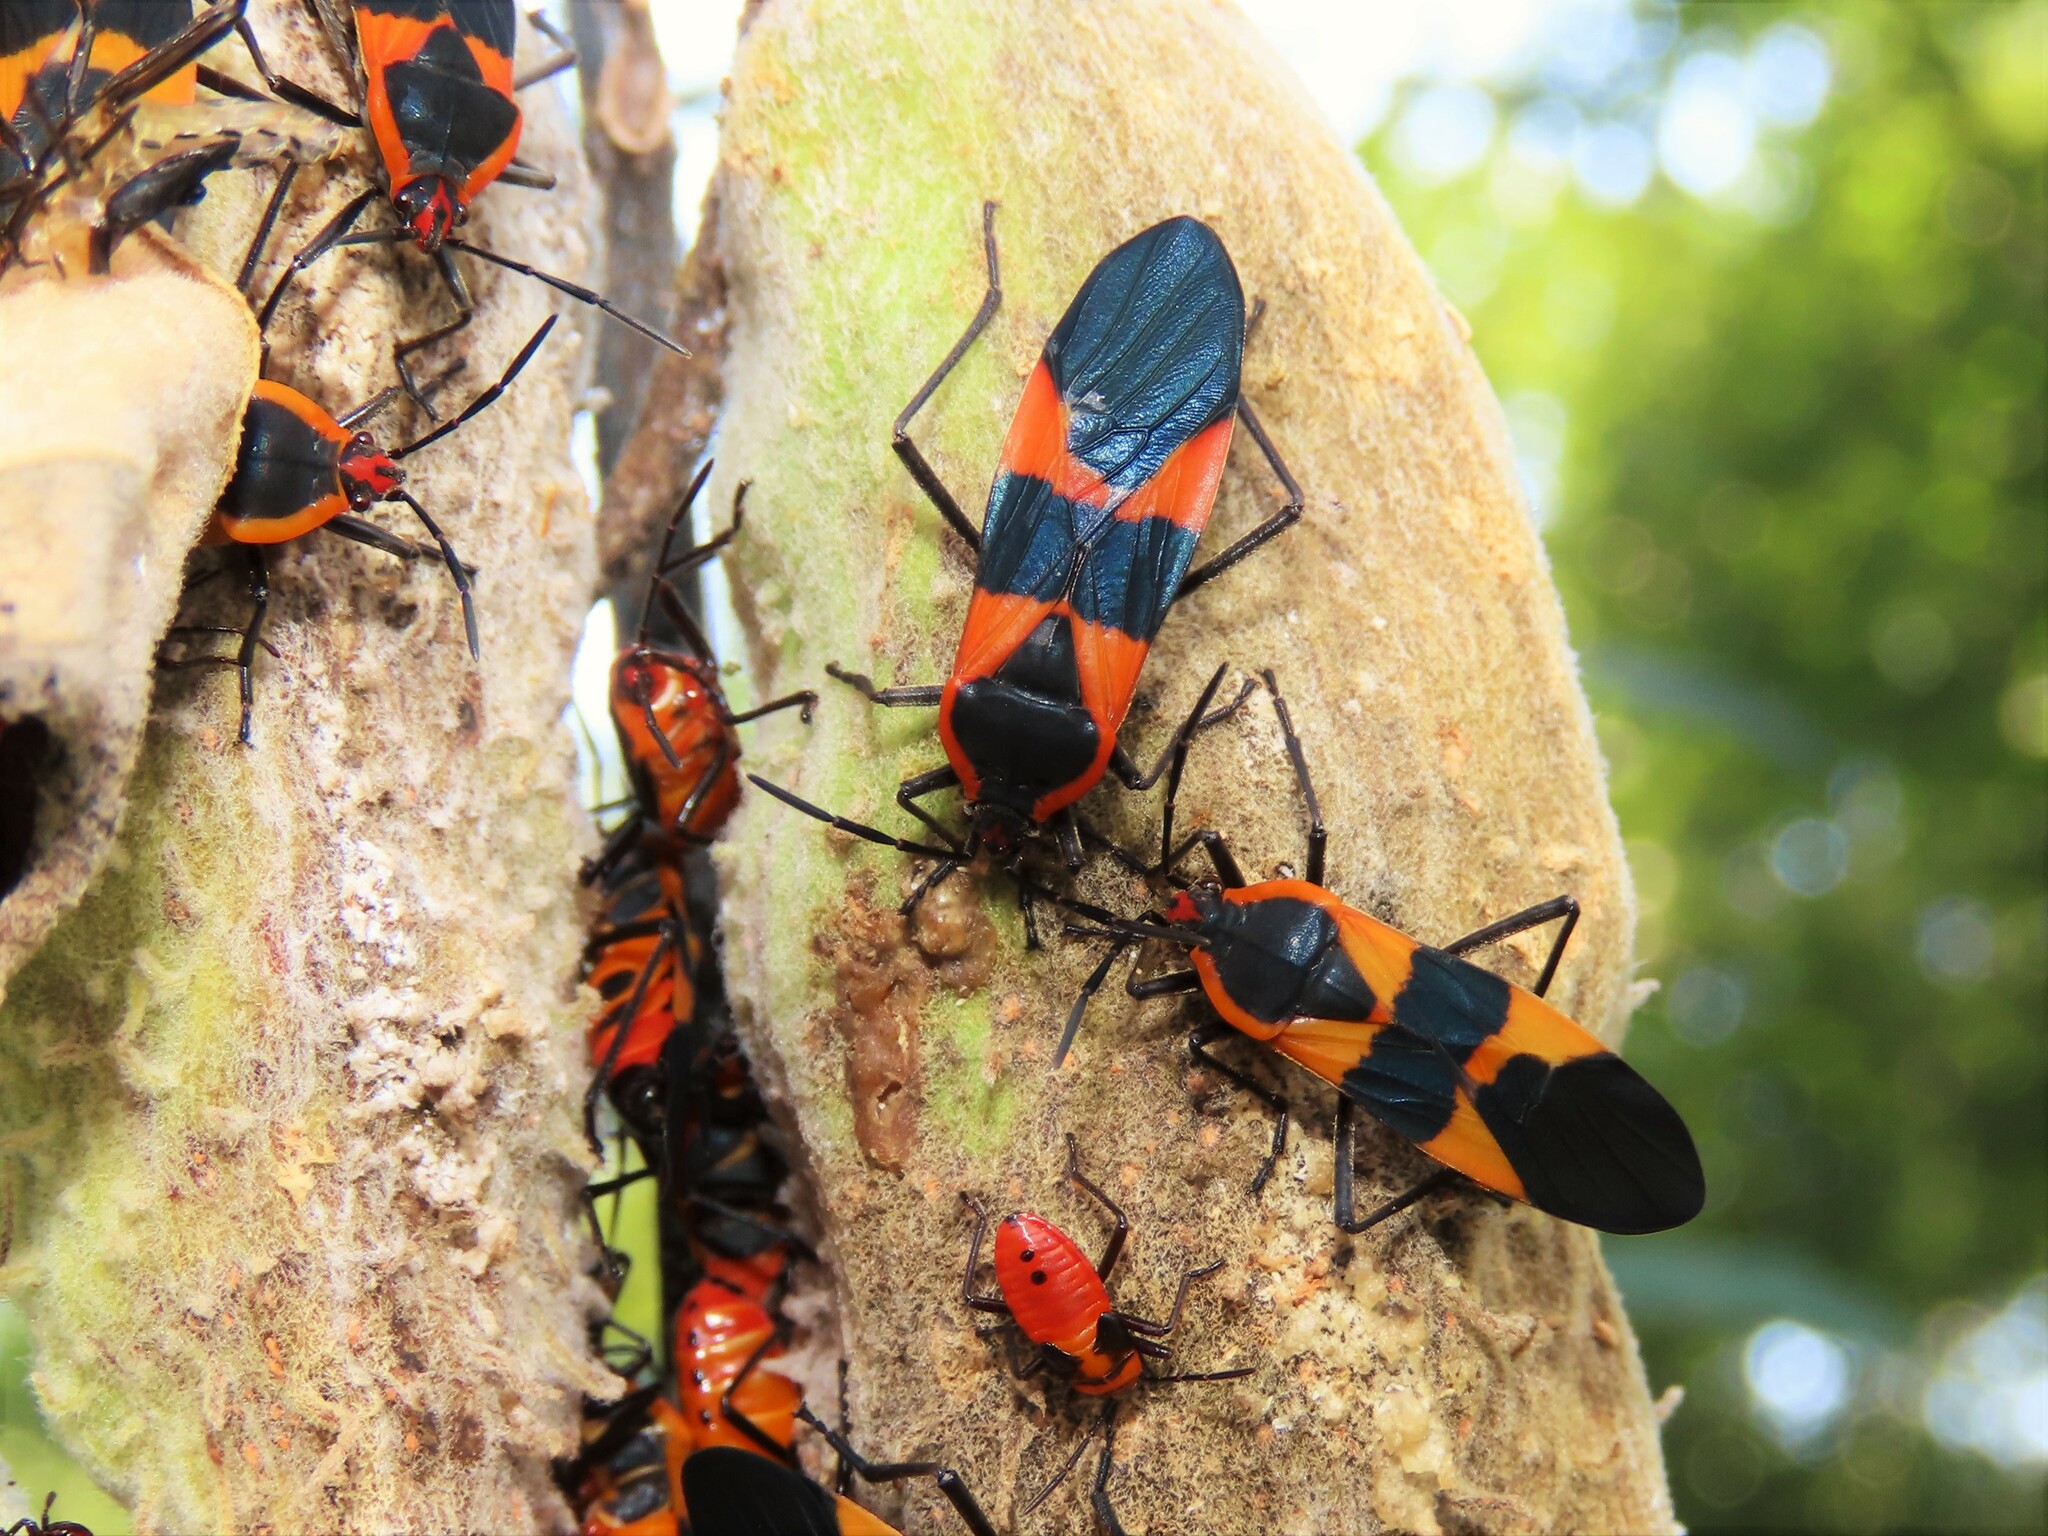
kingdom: Animalia
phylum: Arthropoda
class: Insecta
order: Hemiptera
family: Lygaeidae
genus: Oncopeltus
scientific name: Oncopeltus fasciatus
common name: Large milkweed bug
